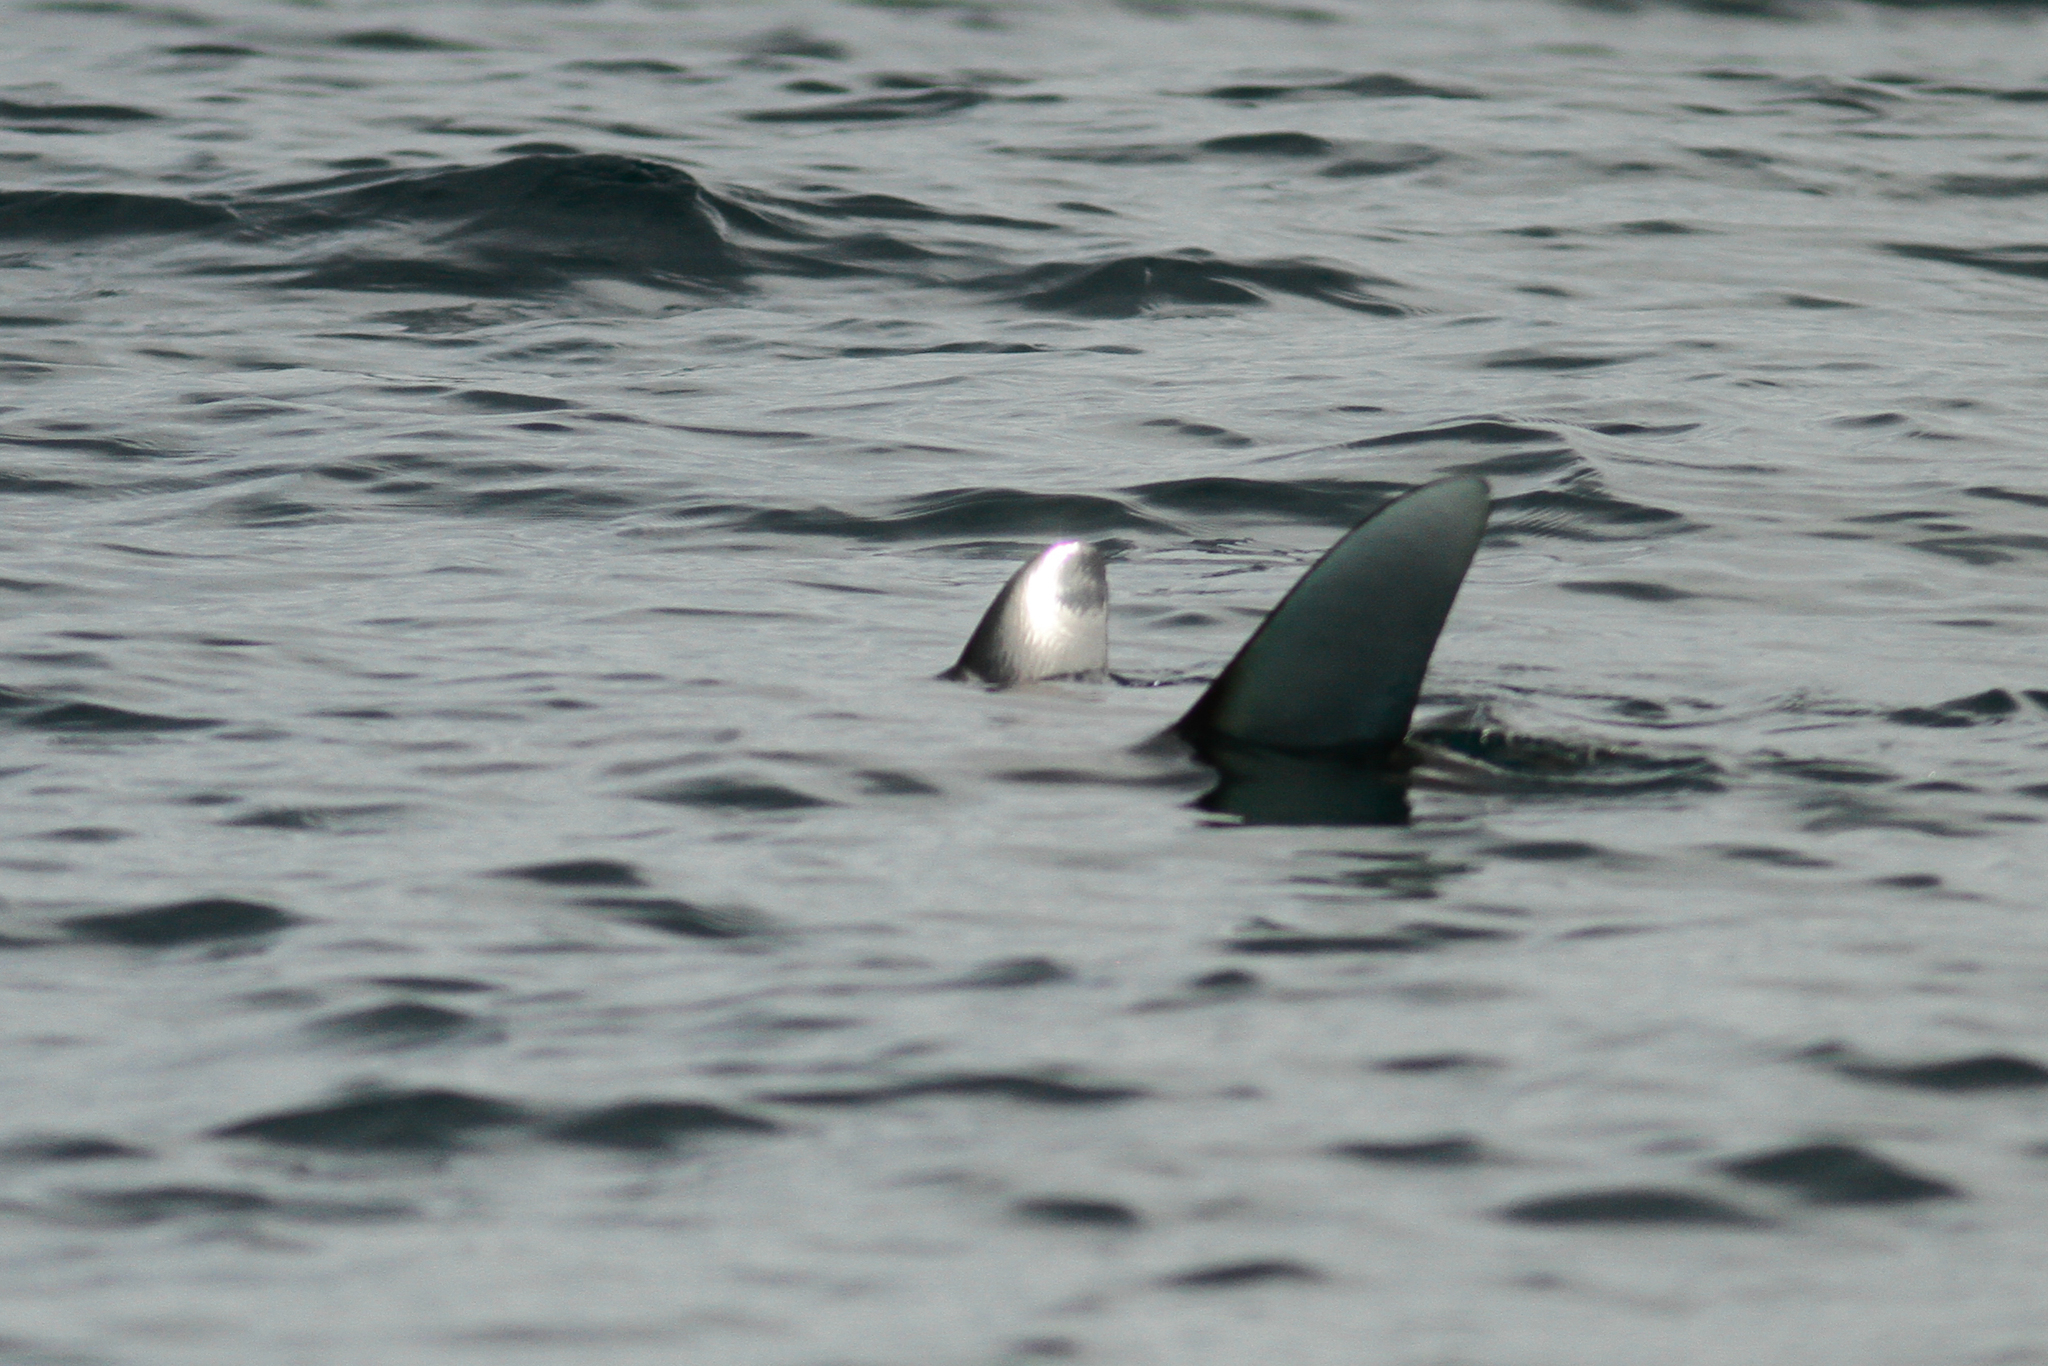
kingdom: Animalia
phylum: Chordata
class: Elasmobranchii
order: Myliobatiformes
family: Myliobatidae
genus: Mobula
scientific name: Mobula birostris
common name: Manta ray
